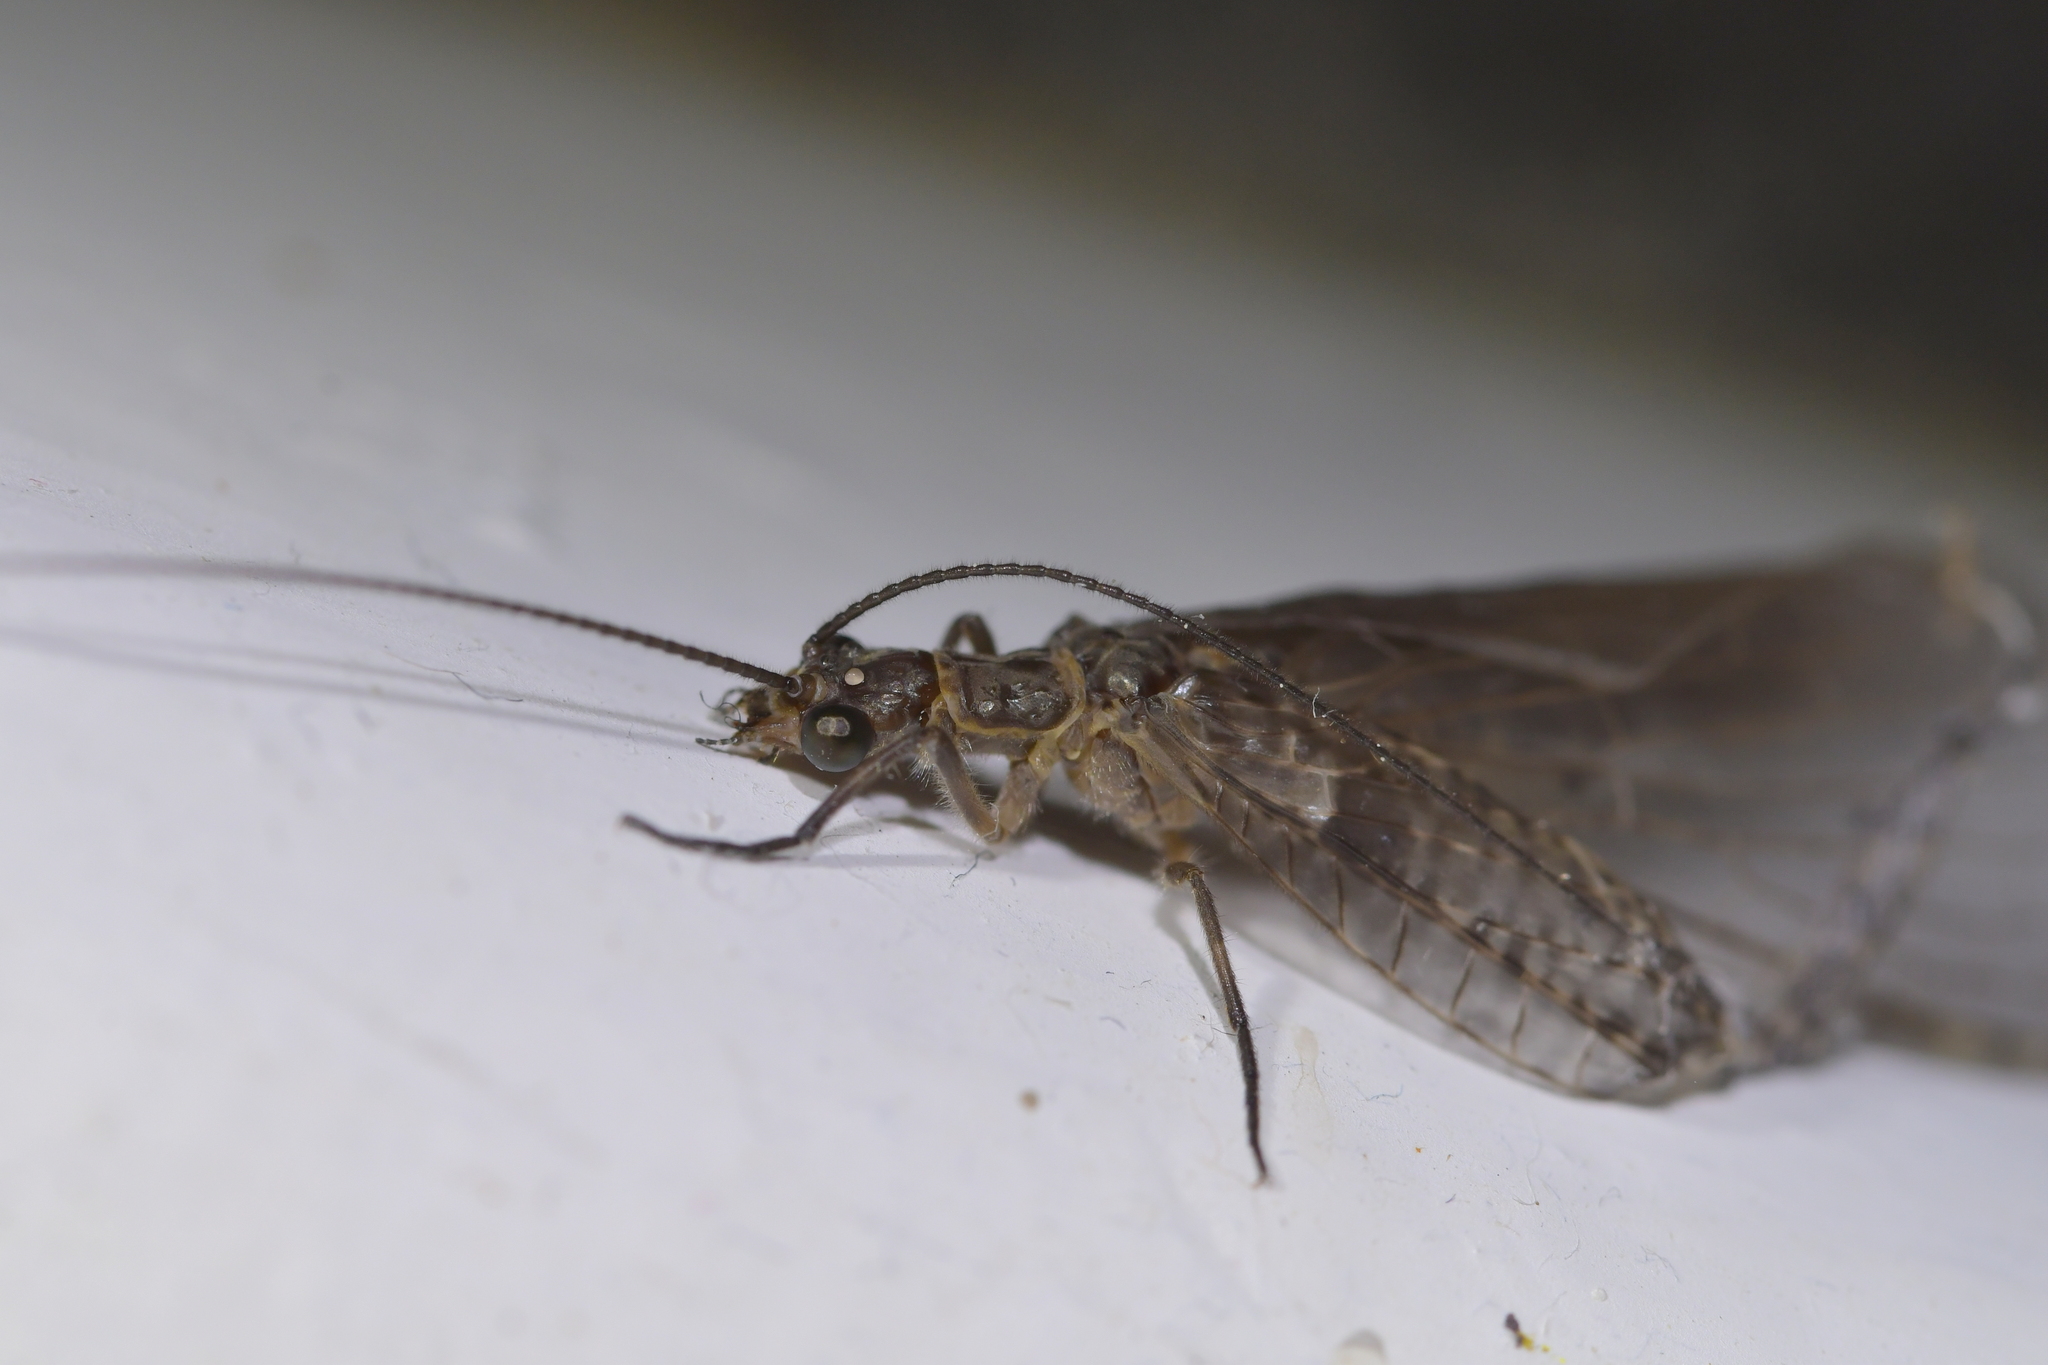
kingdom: Animalia
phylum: Arthropoda
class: Insecta
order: Megaloptera
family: Corydalidae
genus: Archichauliodes
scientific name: Archichauliodes diversus
